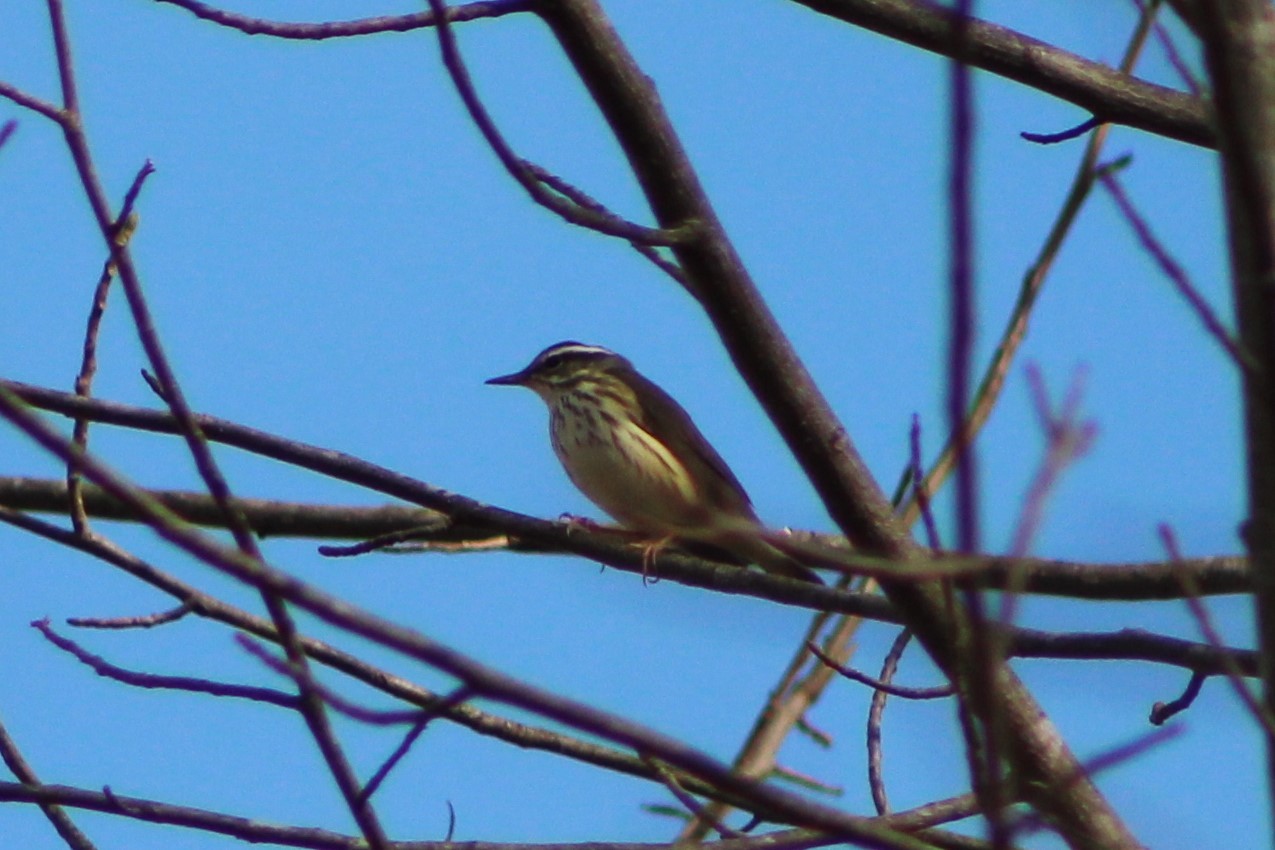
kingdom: Animalia
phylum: Chordata
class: Aves
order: Passeriformes
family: Parulidae
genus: Parkesia
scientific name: Parkesia motacilla
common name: Louisiana waterthrush
